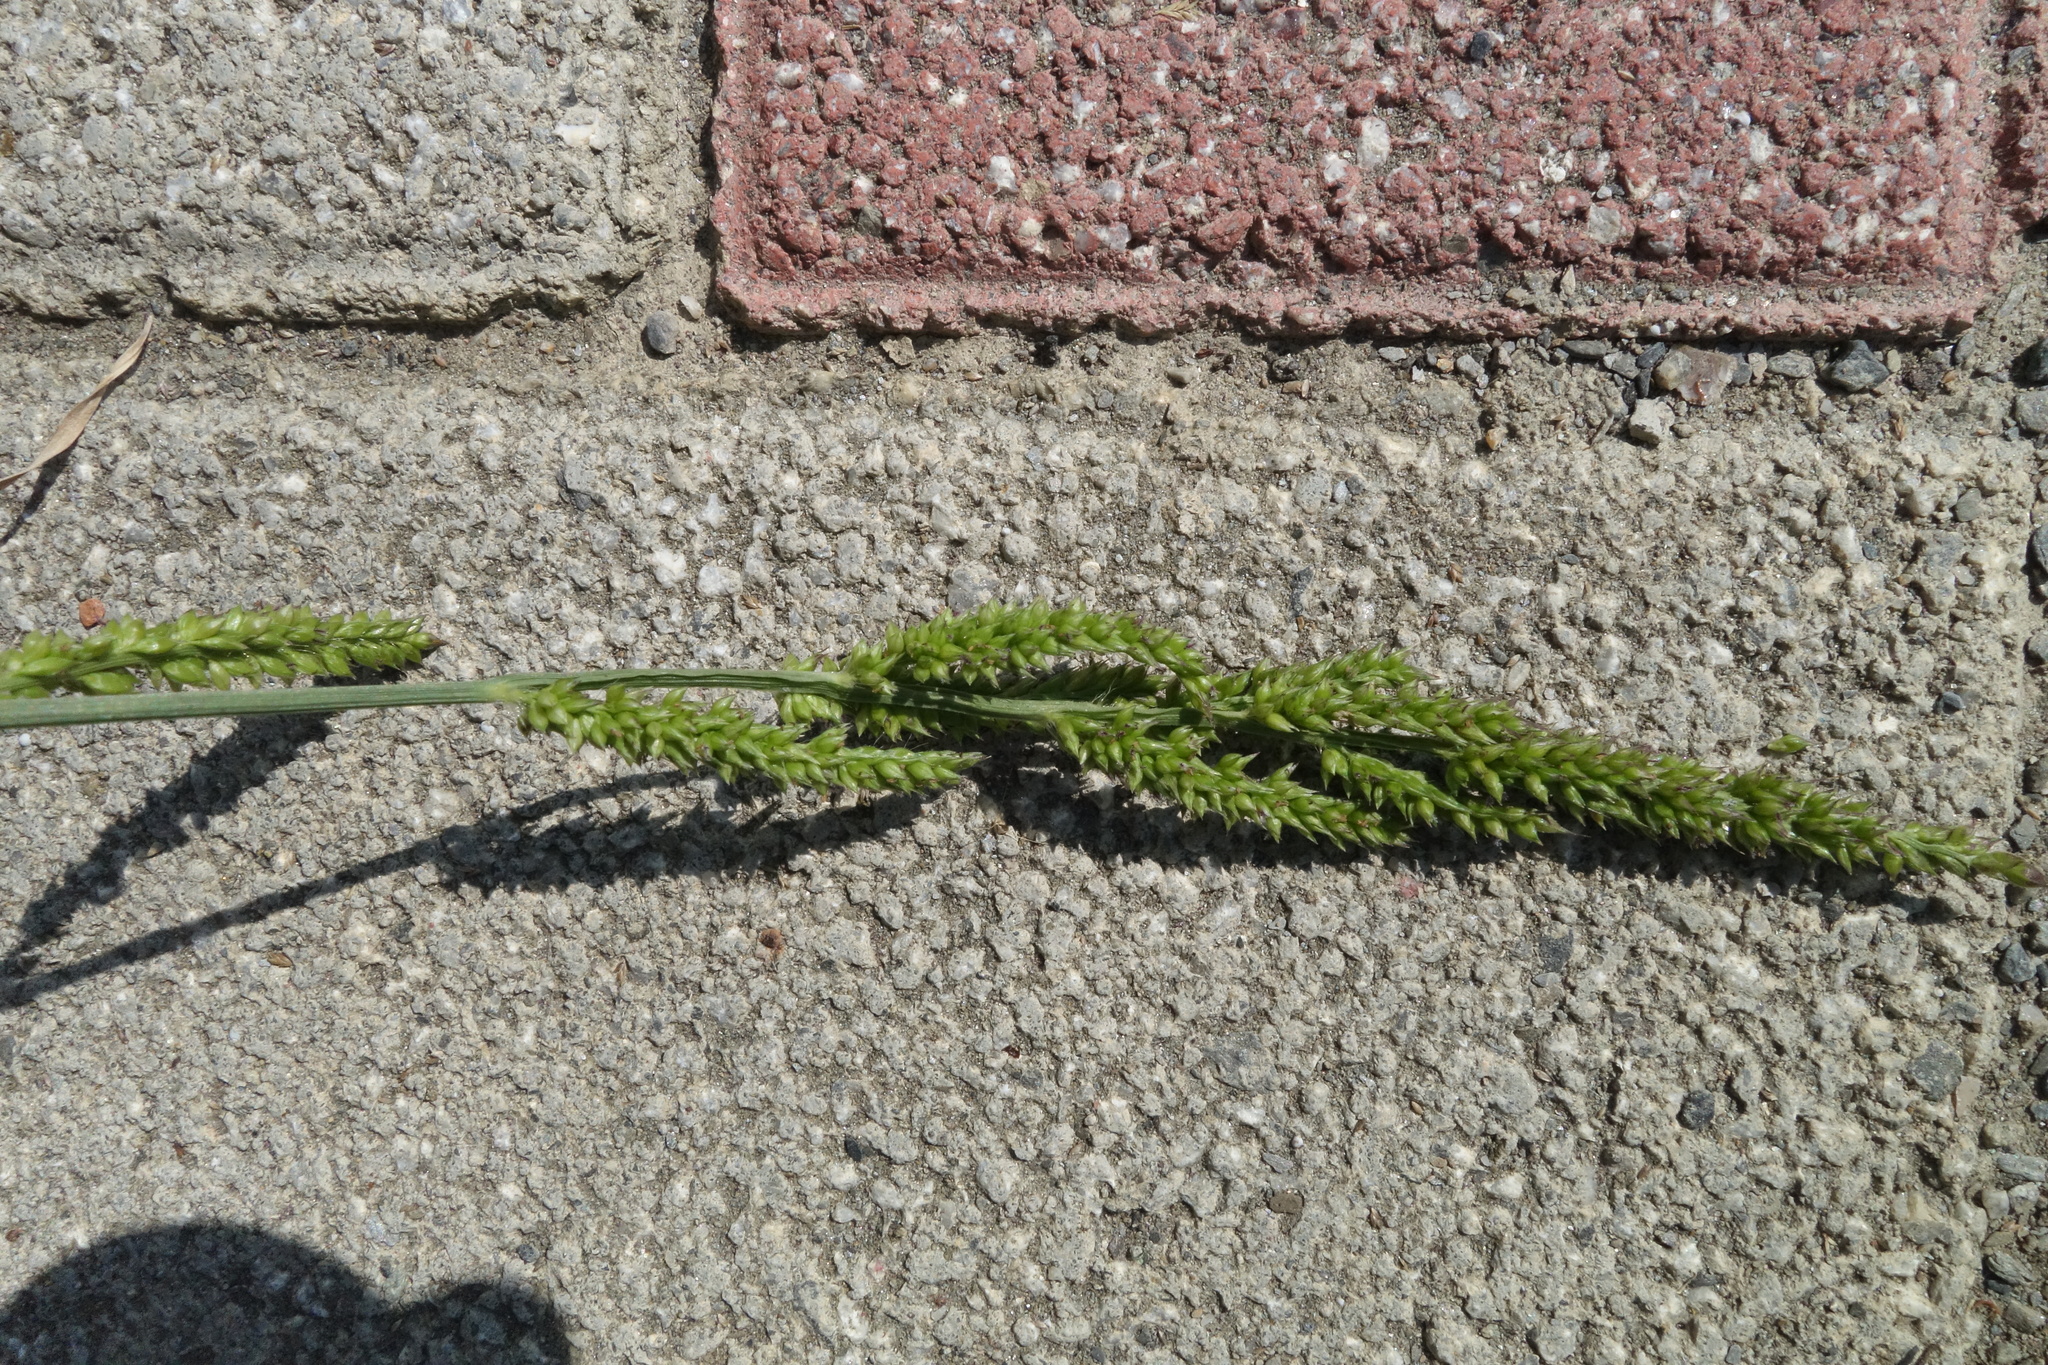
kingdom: Plantae
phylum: Tracheophyta
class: Liliopsida
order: Poales
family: Poaceae
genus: Echinochloa
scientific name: Echinochloa crus-galli
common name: Cockspur
